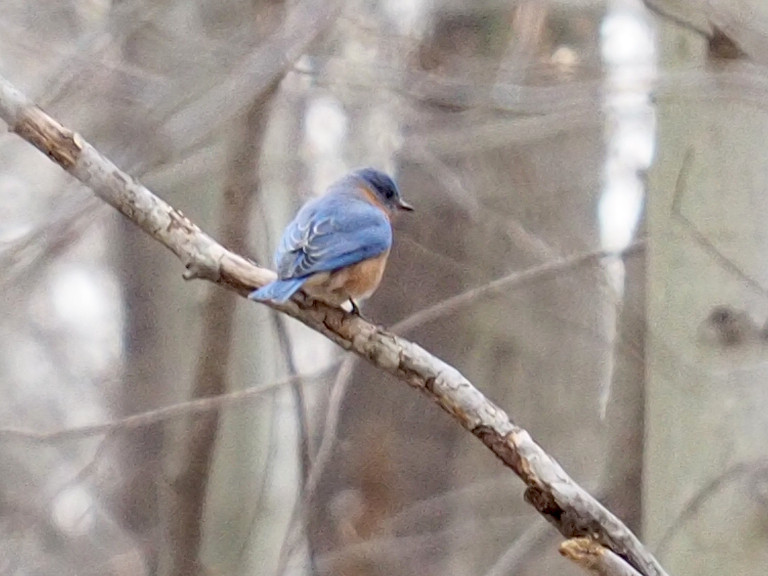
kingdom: Animalia
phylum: Chordata
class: Aves
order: Passeriformes
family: Turdidae
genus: Sialia
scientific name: Sialia sialis
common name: Eastern bluebird
